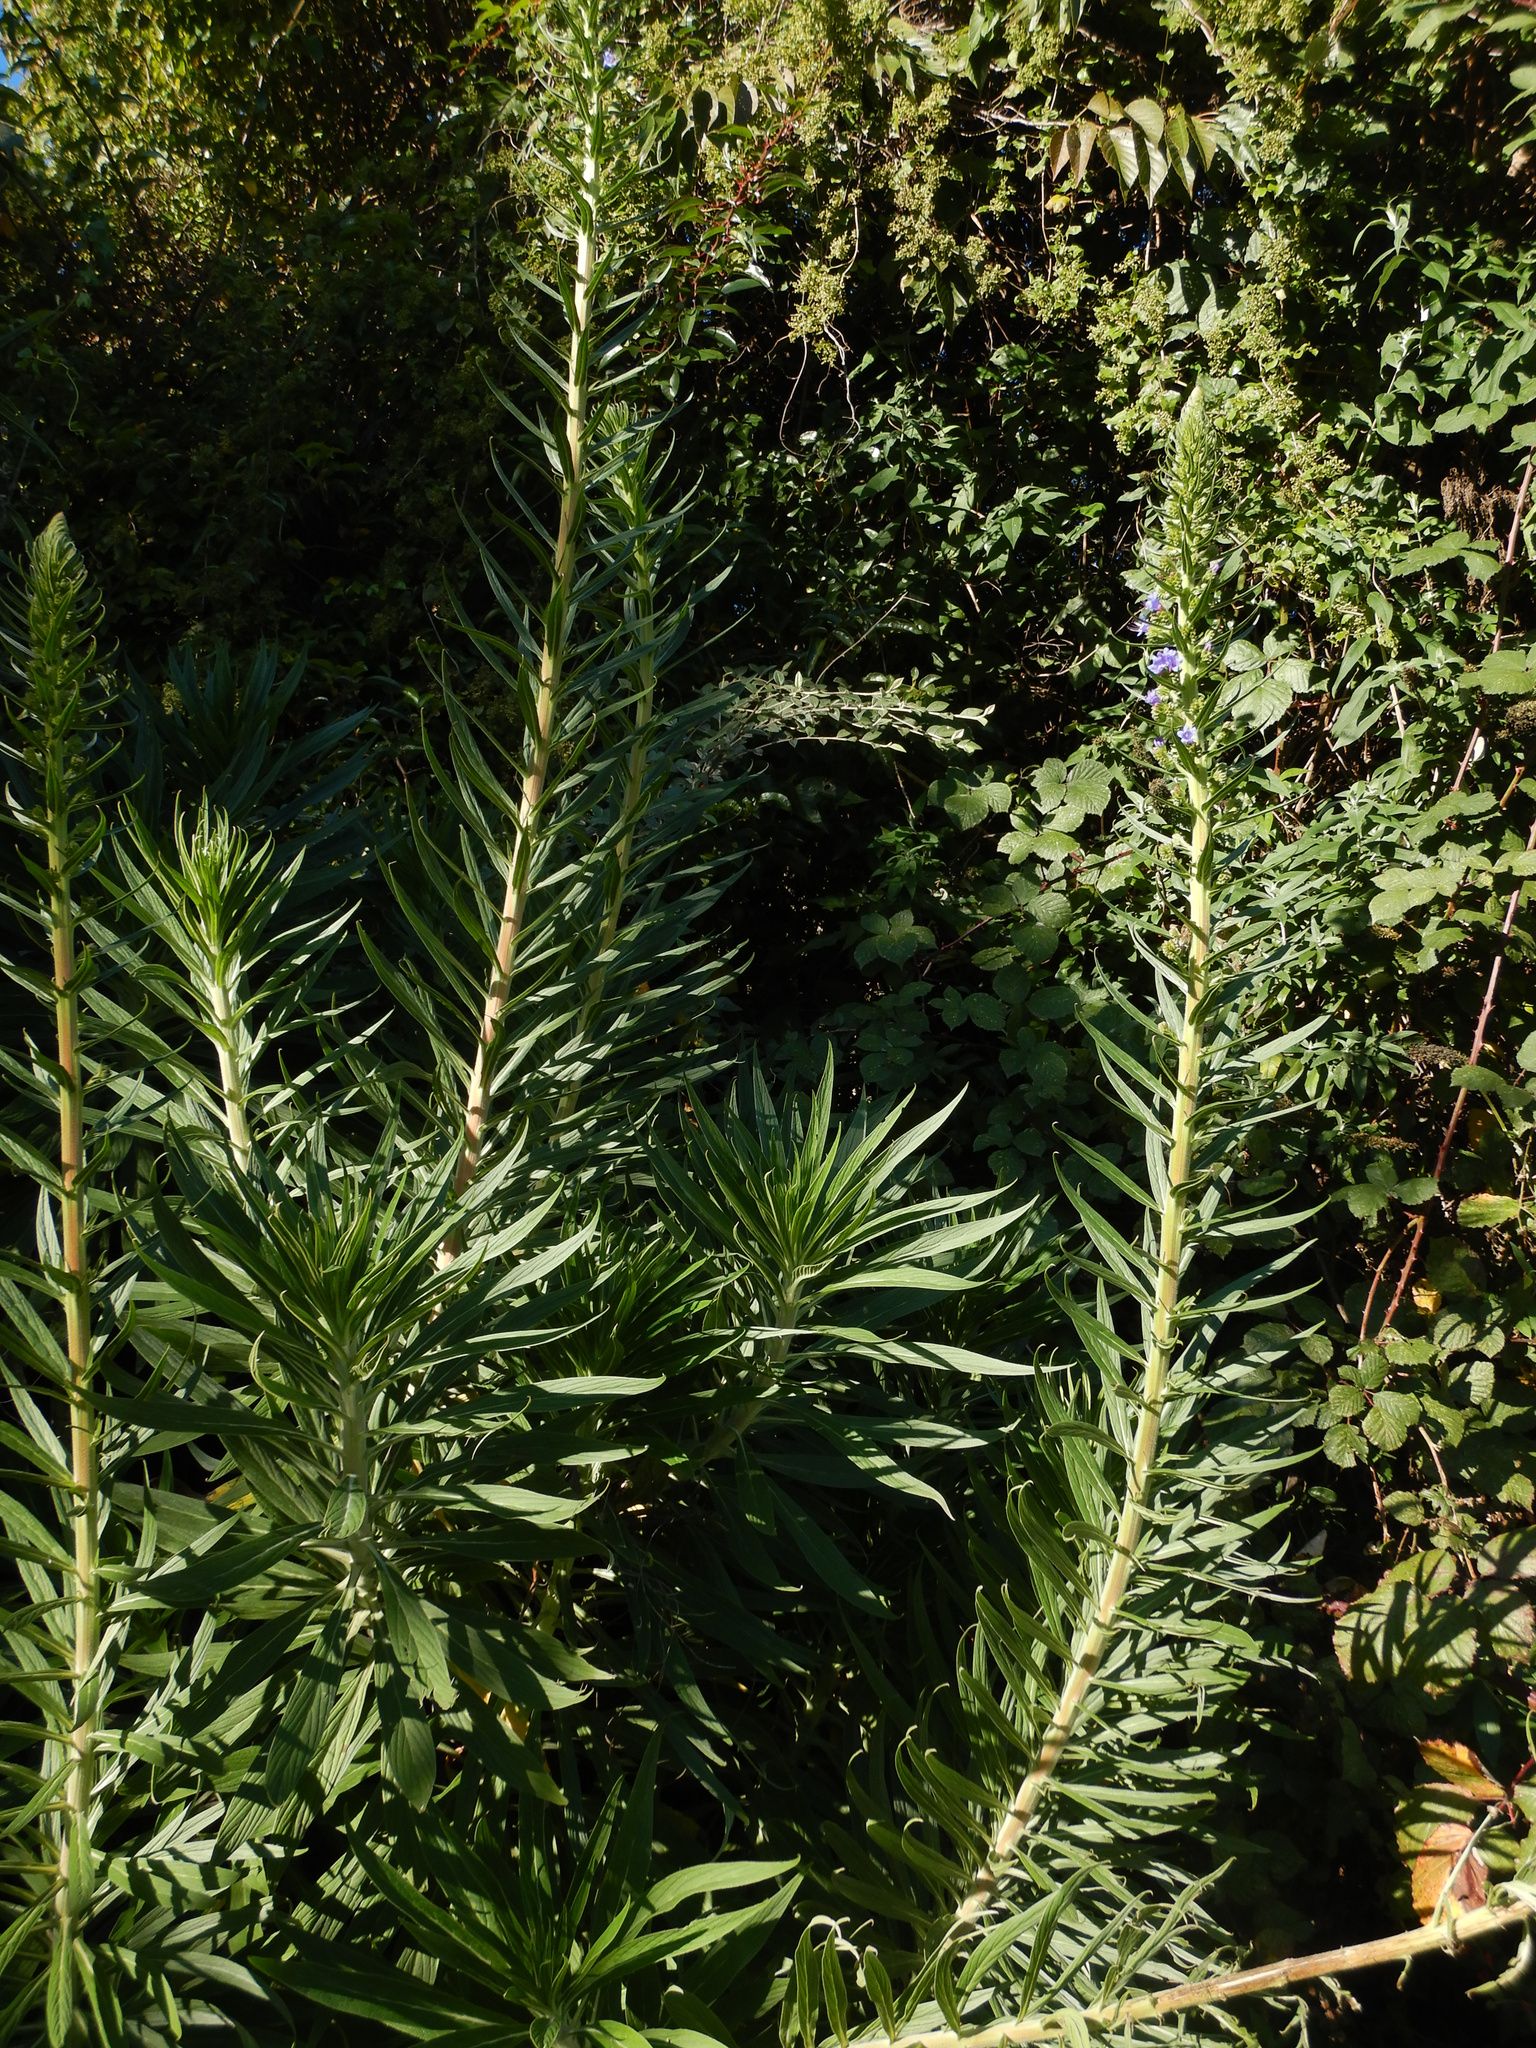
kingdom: Plantae
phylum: Tracheophyta
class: Magnoliopsida
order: Boraginales
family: Boraginaceae
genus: Echium
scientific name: Echium pininana
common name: Giant viper's-bugloss
